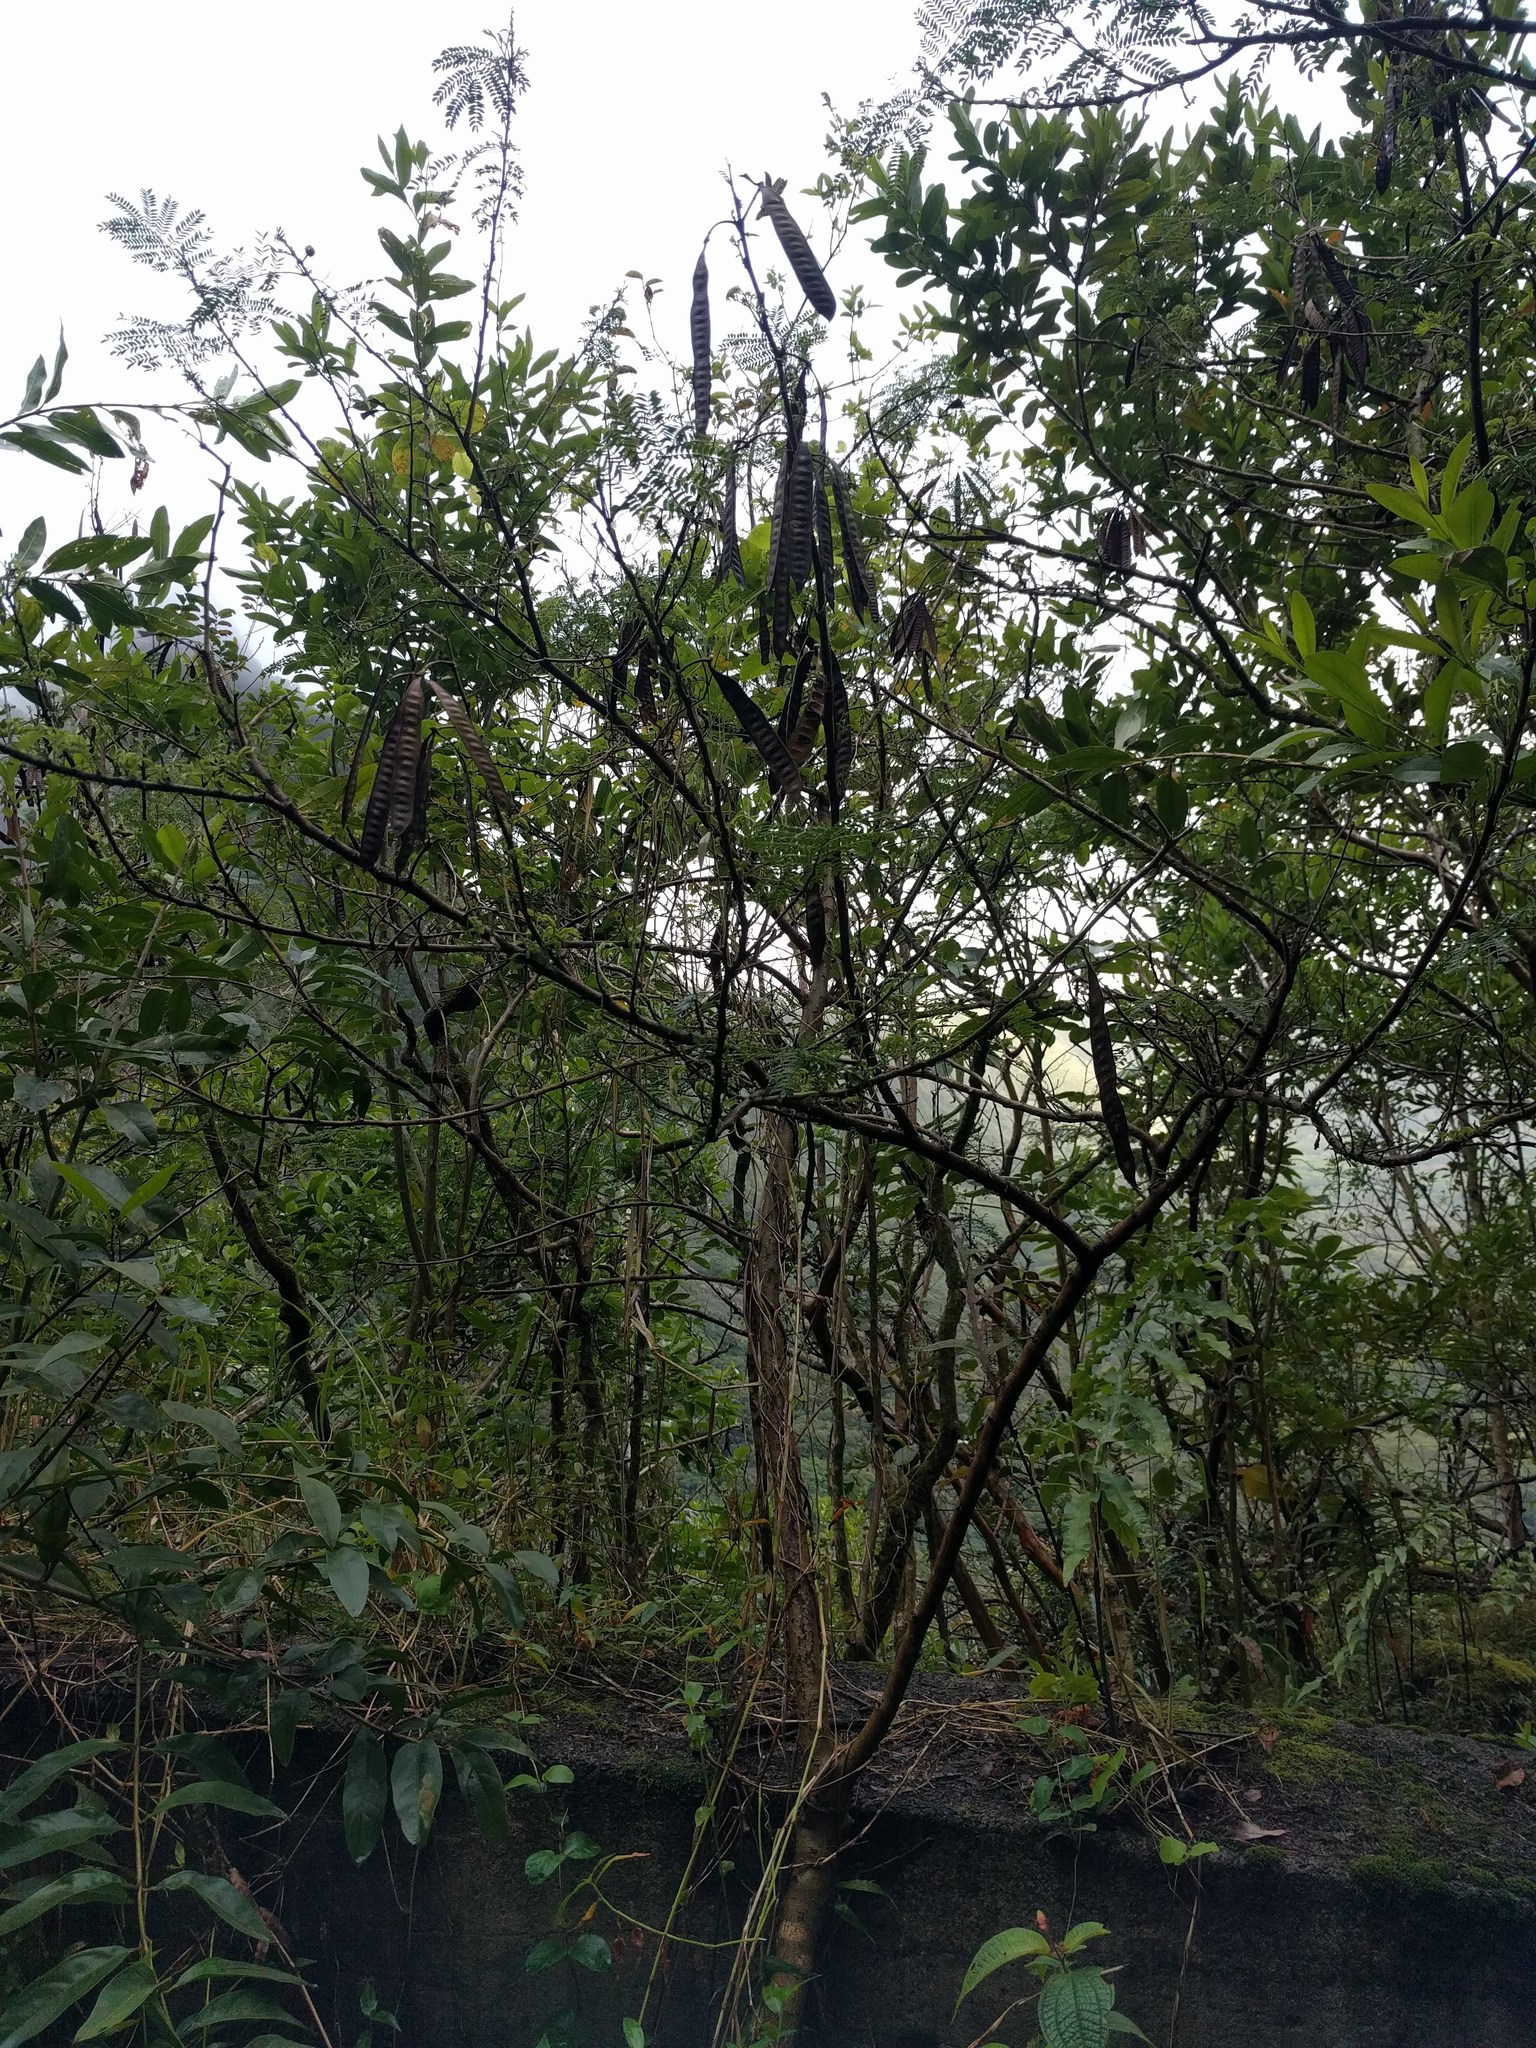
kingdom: Plantae
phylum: Tracheophyta
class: Magnoliopsida
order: Fabales
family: Fabaceae
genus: Leucaena
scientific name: Leucaena leucocephala
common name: White leadtree
